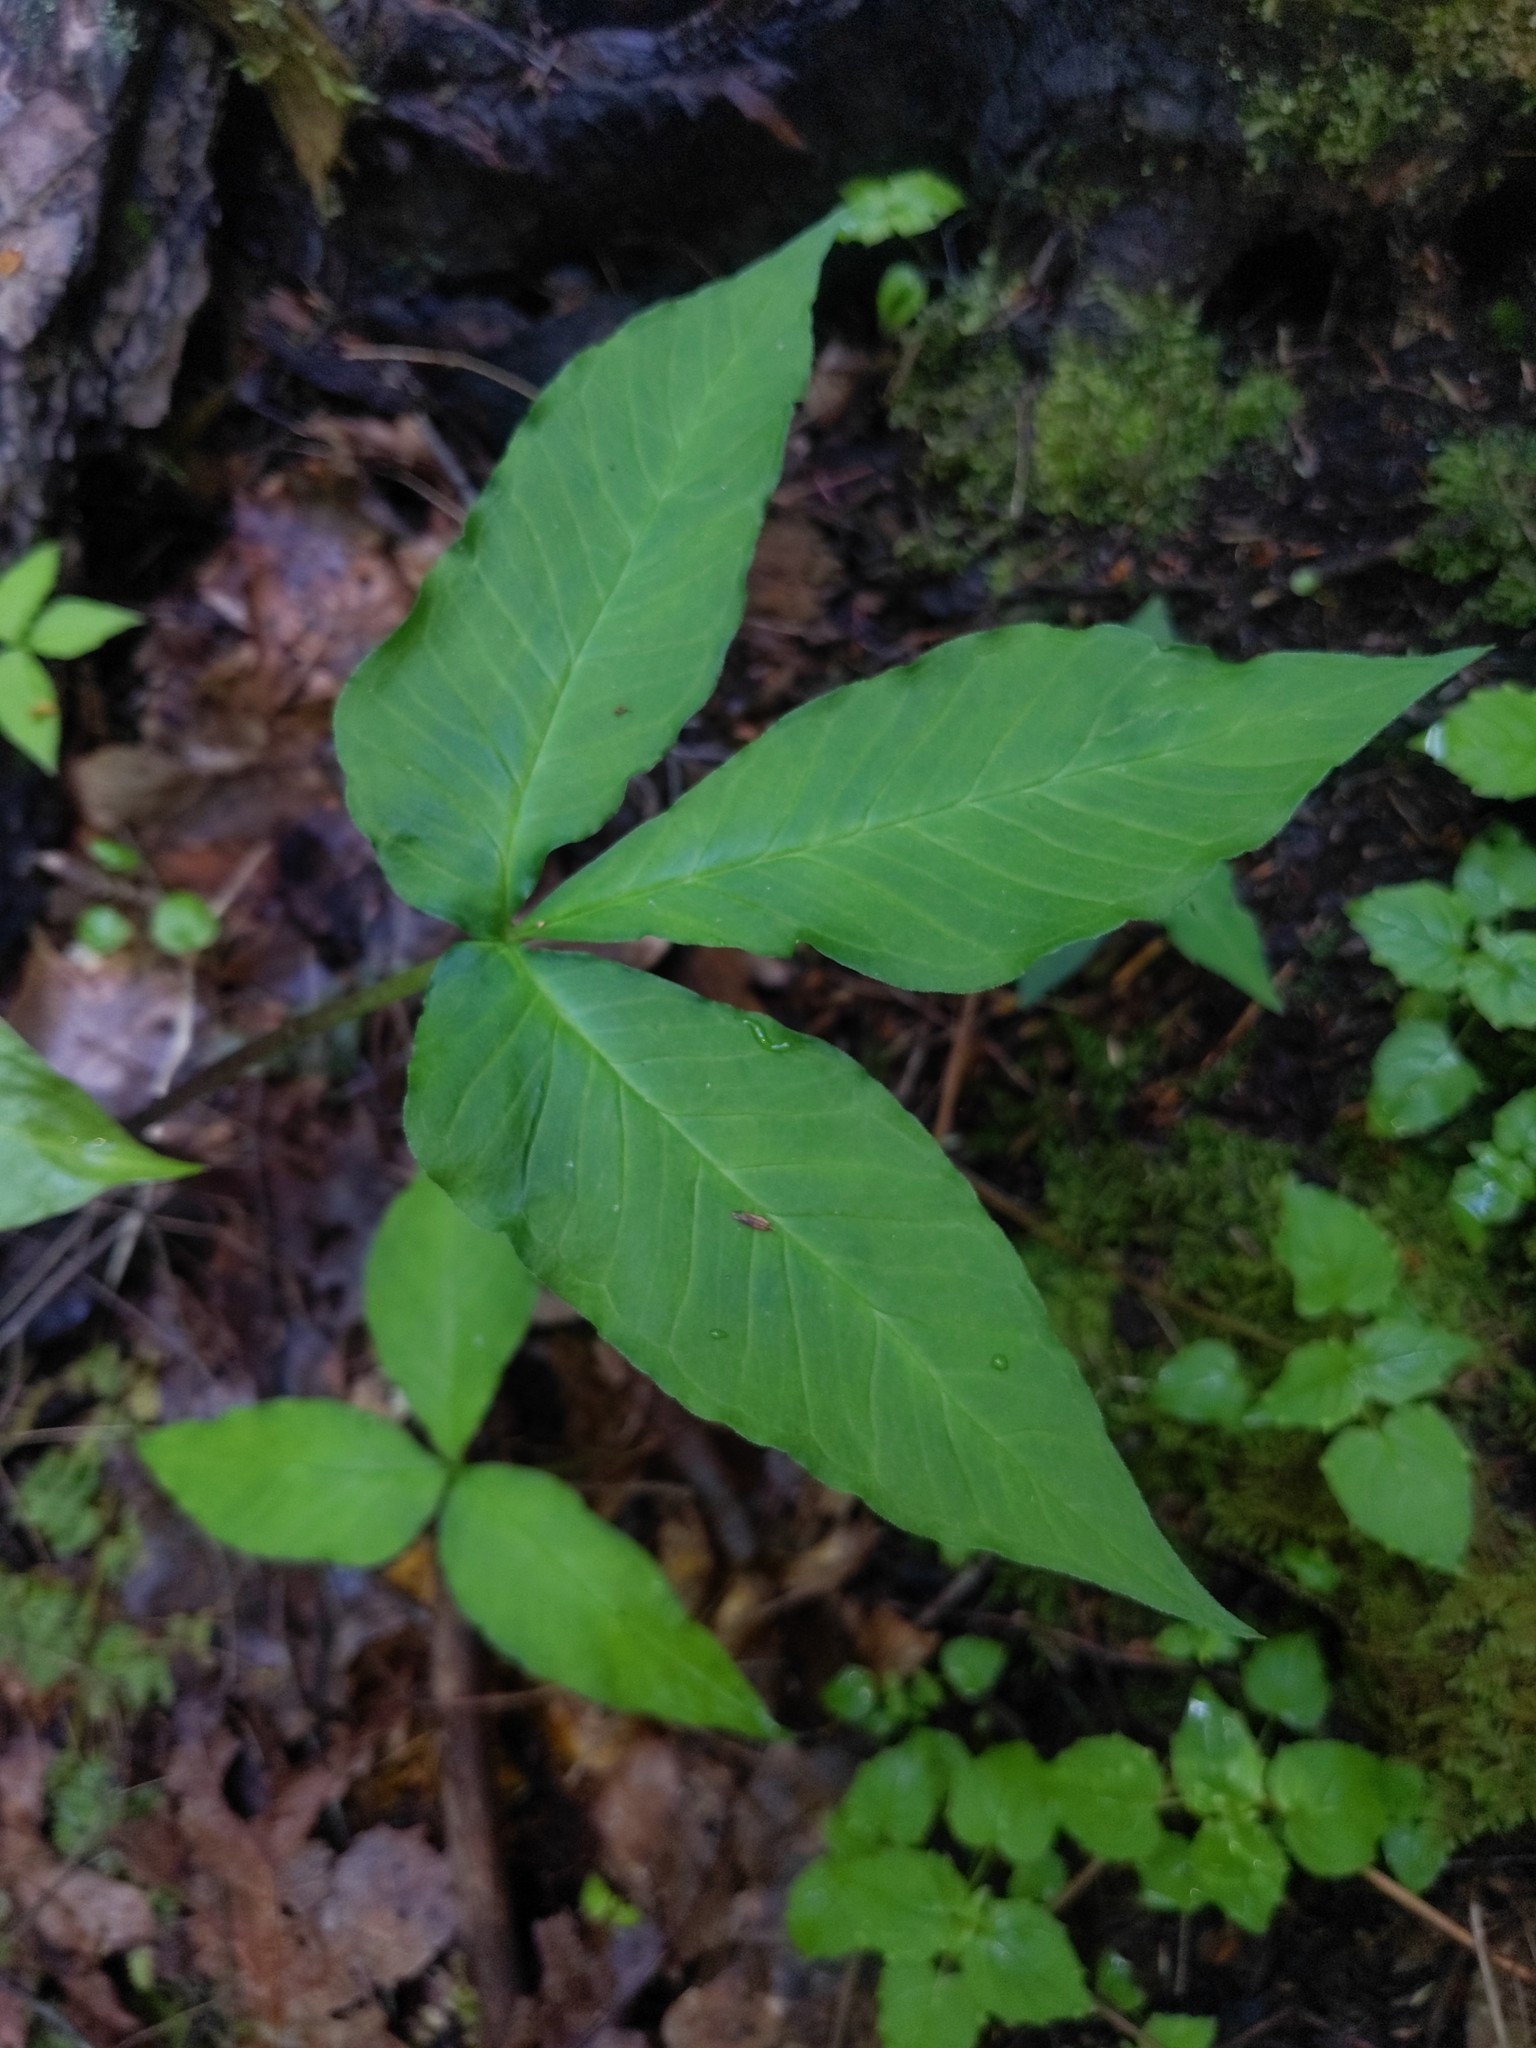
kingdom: Plantae
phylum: Tracheophyta
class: Liliopsida
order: Alismatales
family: Araceae
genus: Arisaema
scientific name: Arisaema triphyllum
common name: Jack-in-the-pulpit
